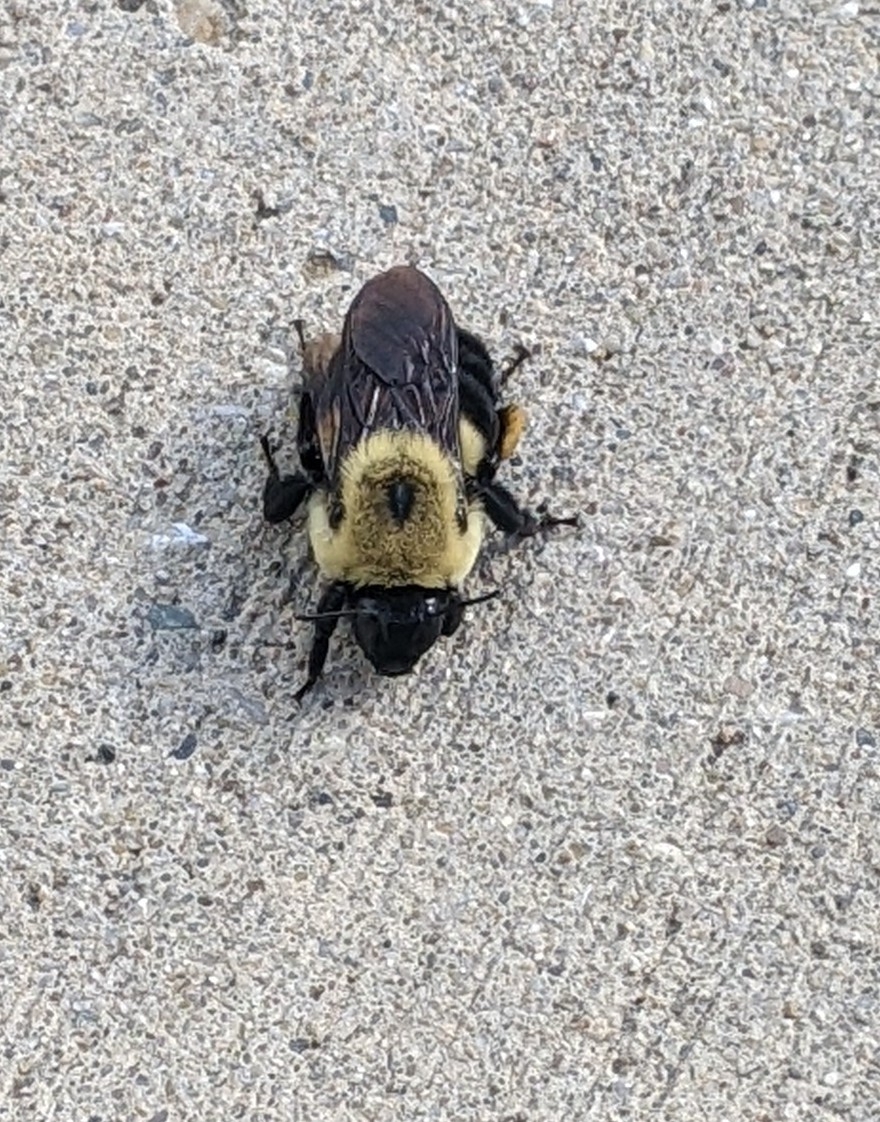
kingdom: Animalia
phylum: Arthropoda
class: Insecta
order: Hymenoptera
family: Apidae
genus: Bombus
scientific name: Bombus griseocollis
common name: Brown-belted bumble bee
